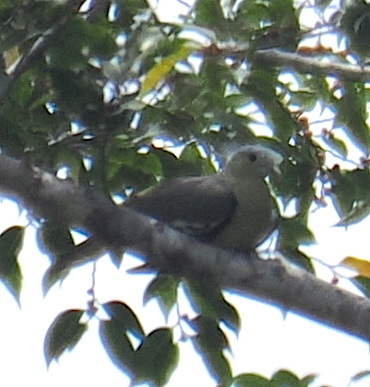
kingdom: Animalia
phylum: Chordata
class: Aves
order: Columbiformes
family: Columbidae
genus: Treron
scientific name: Treron floris
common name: Flores green pigeon
